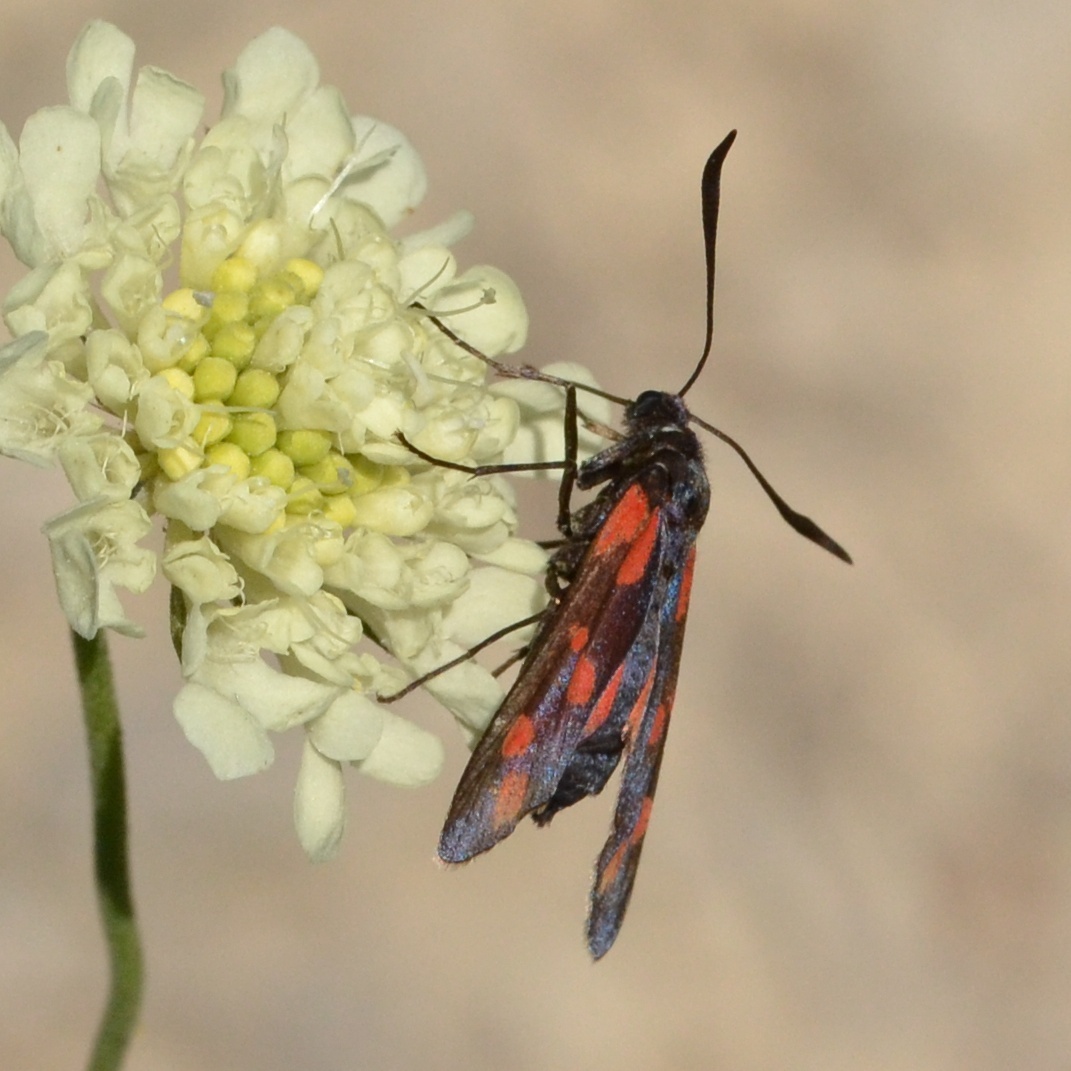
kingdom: Animalia
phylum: Arthropoda
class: Insecta
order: Lepidoptera
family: Zygaenidae
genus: Zygaena
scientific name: Zygaena filipendulae
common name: Six-spot burnet
